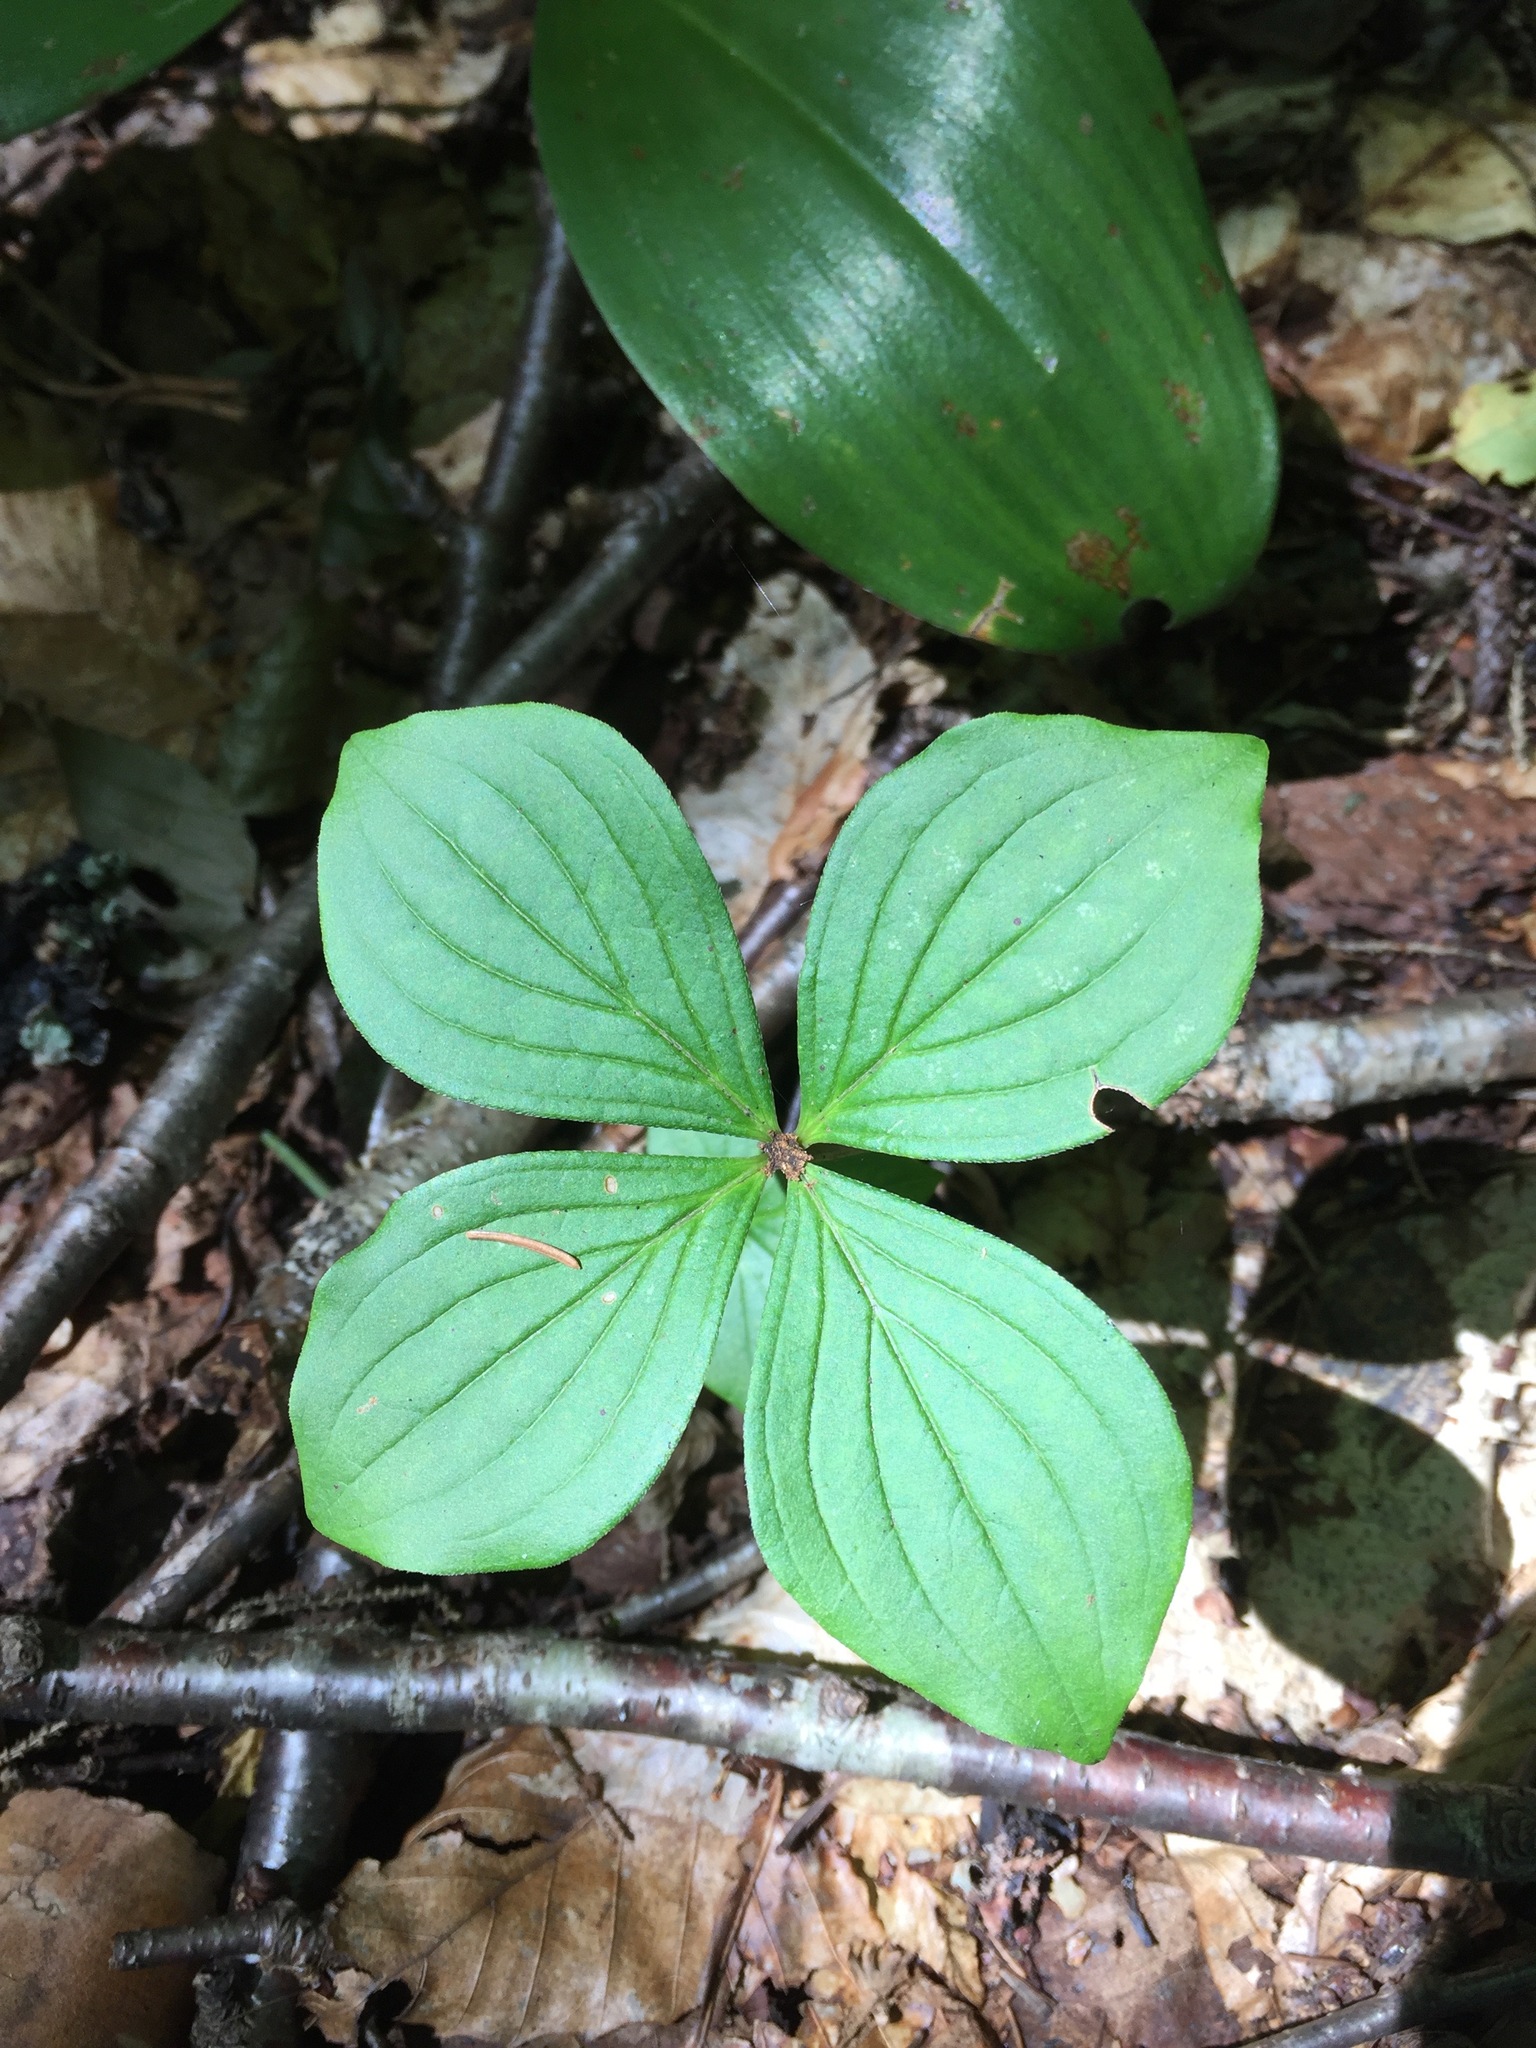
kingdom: Plantae
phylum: Tracheophyta
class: Magnoliopsida
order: Cornales
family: Cornaceae
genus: Cornus
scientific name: Cornus canadensis
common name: Creeping dogwood
